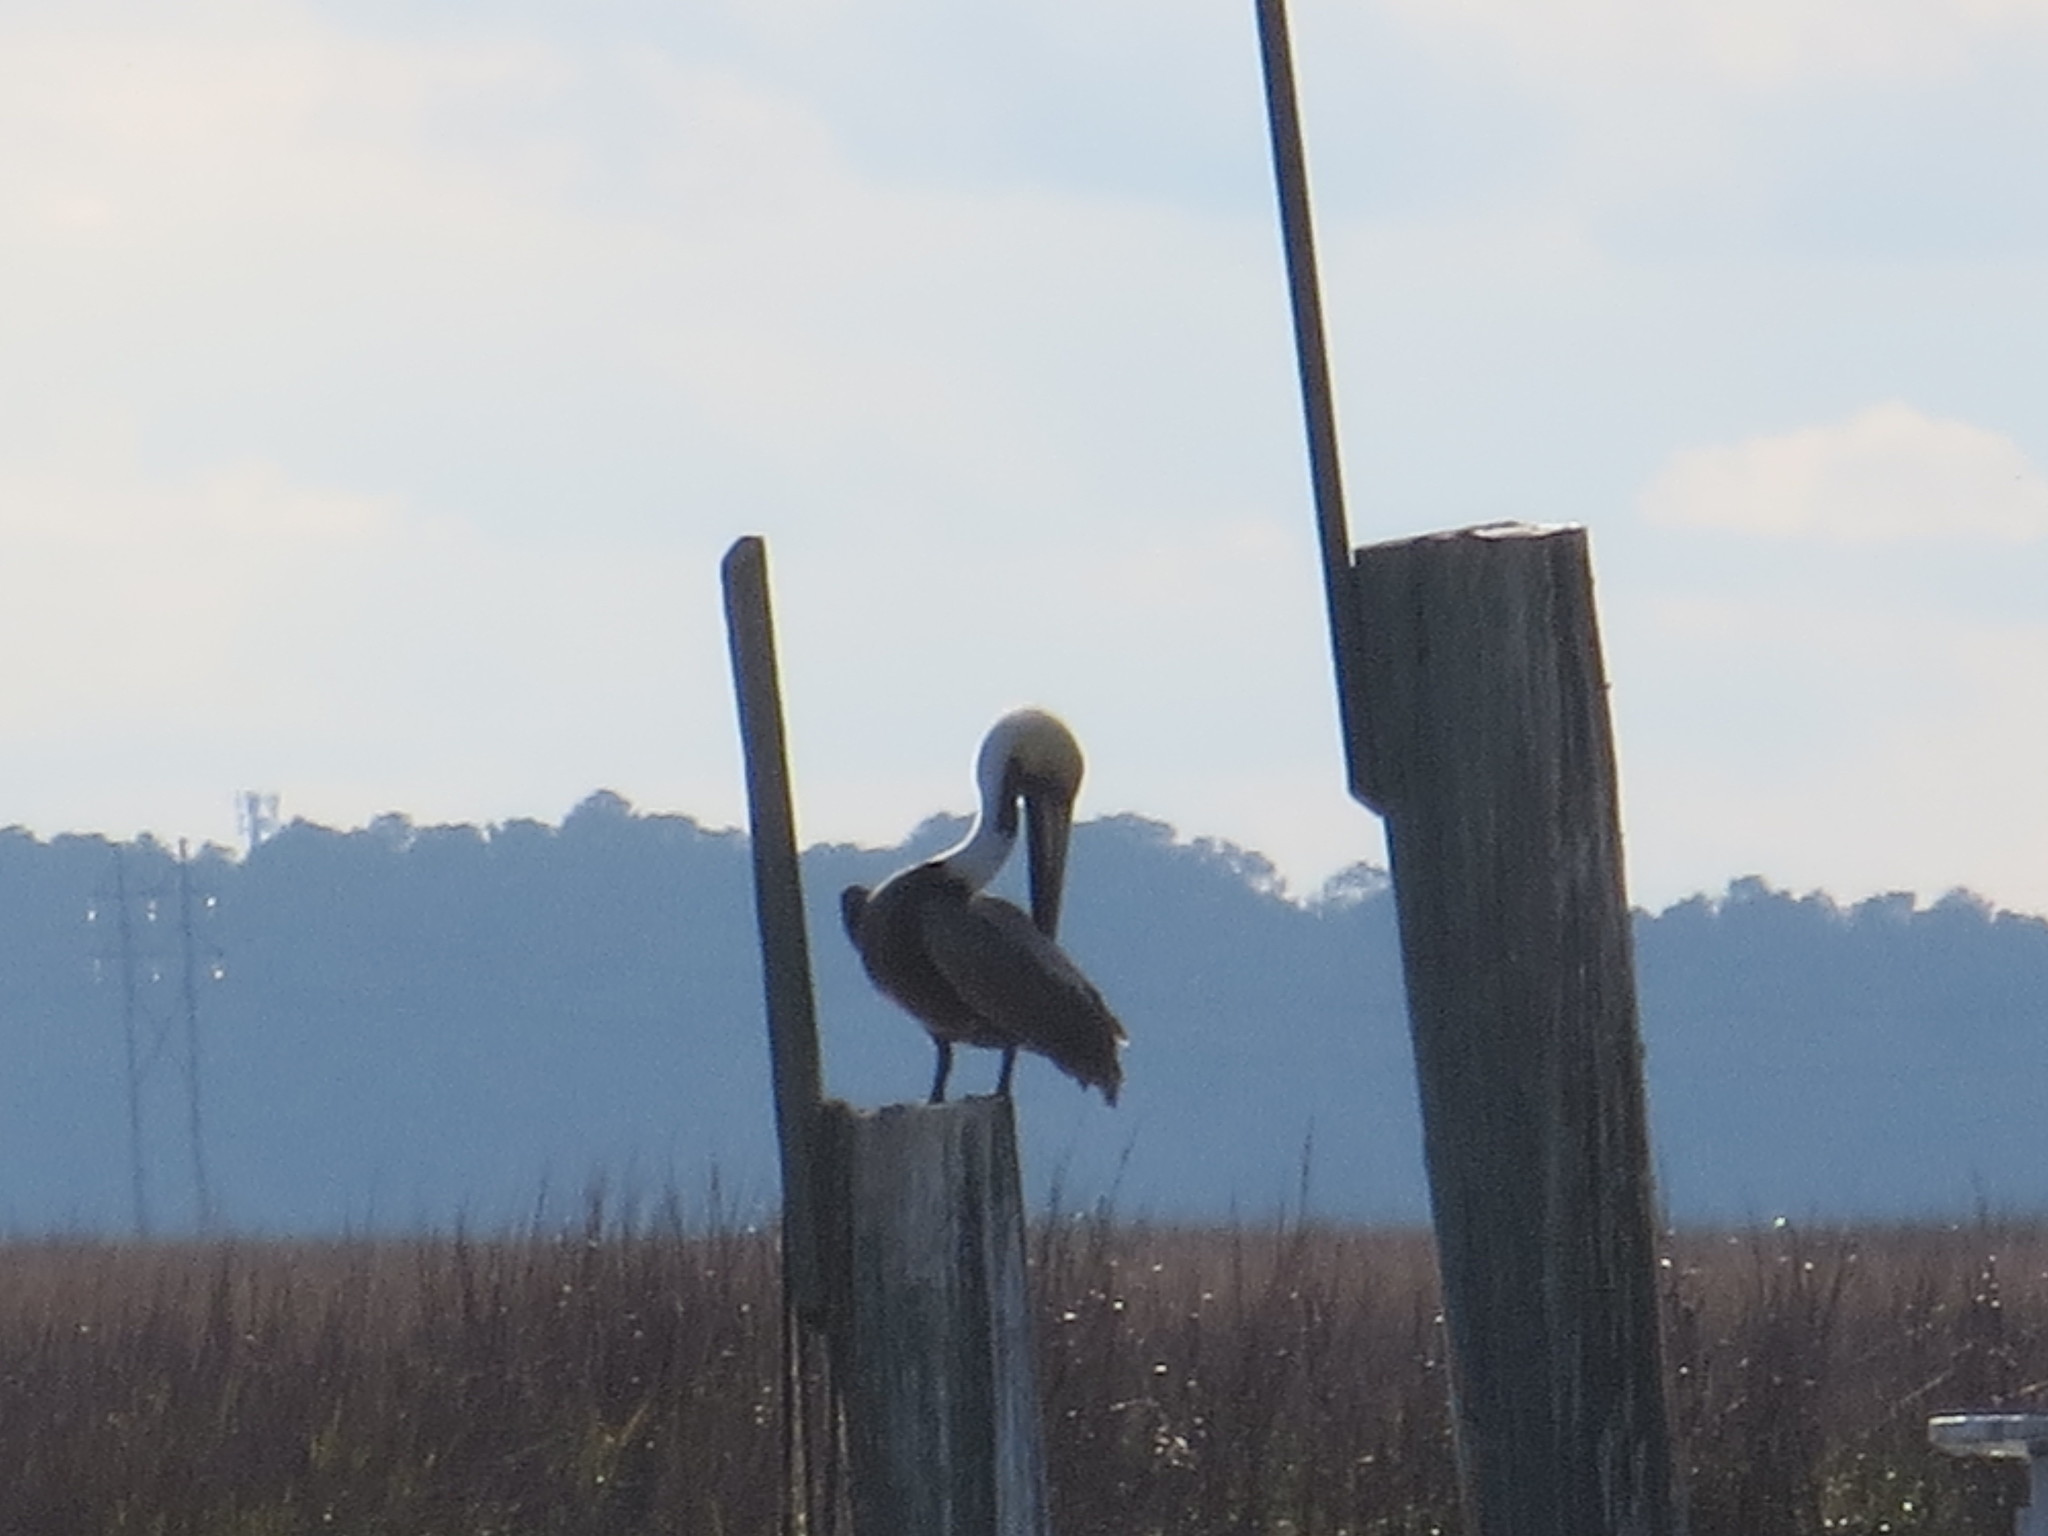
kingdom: Animalia
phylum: Chordata
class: Aves
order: Pelecaniformes
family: Pelecanidae
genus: Pelecanus
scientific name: Pelecanus occidentalis
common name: Brown pelican
